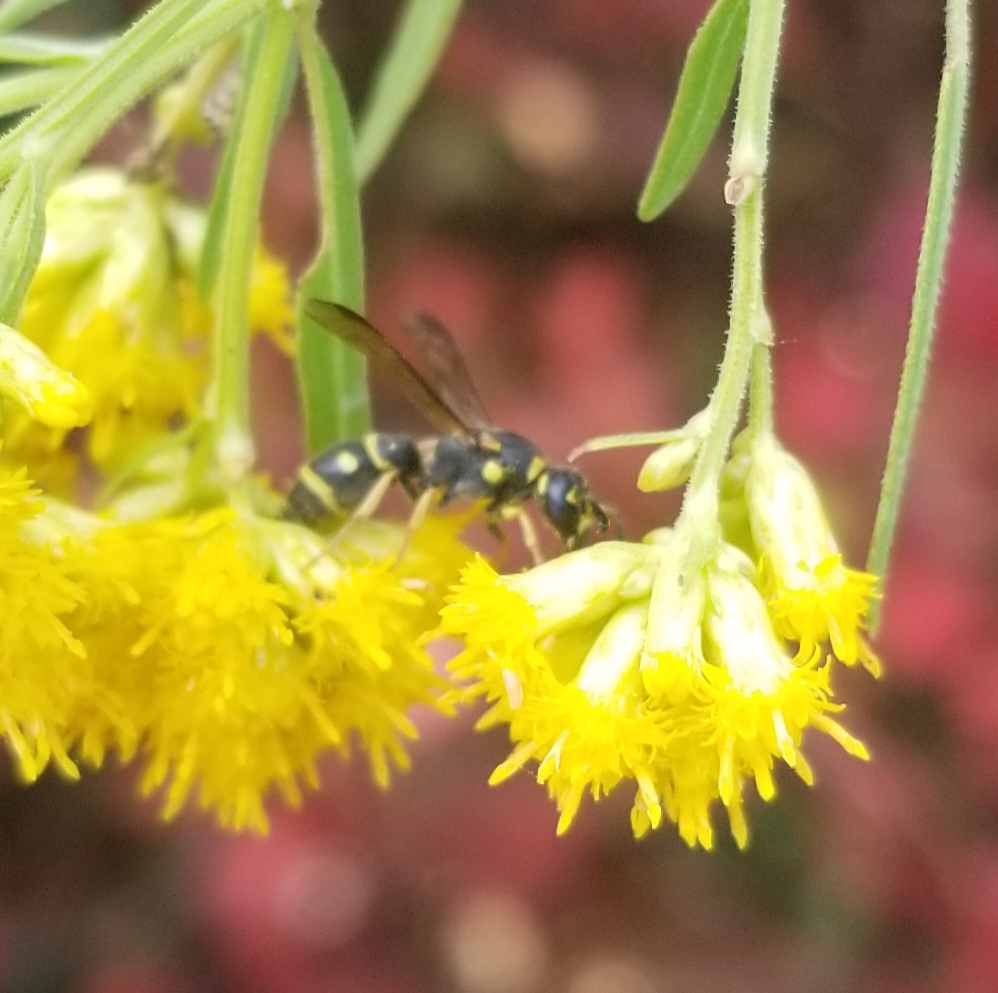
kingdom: Animalia
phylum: Arthropoda
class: Insecta
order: Hymenoptera
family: Eumenidae
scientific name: Eumenidae
